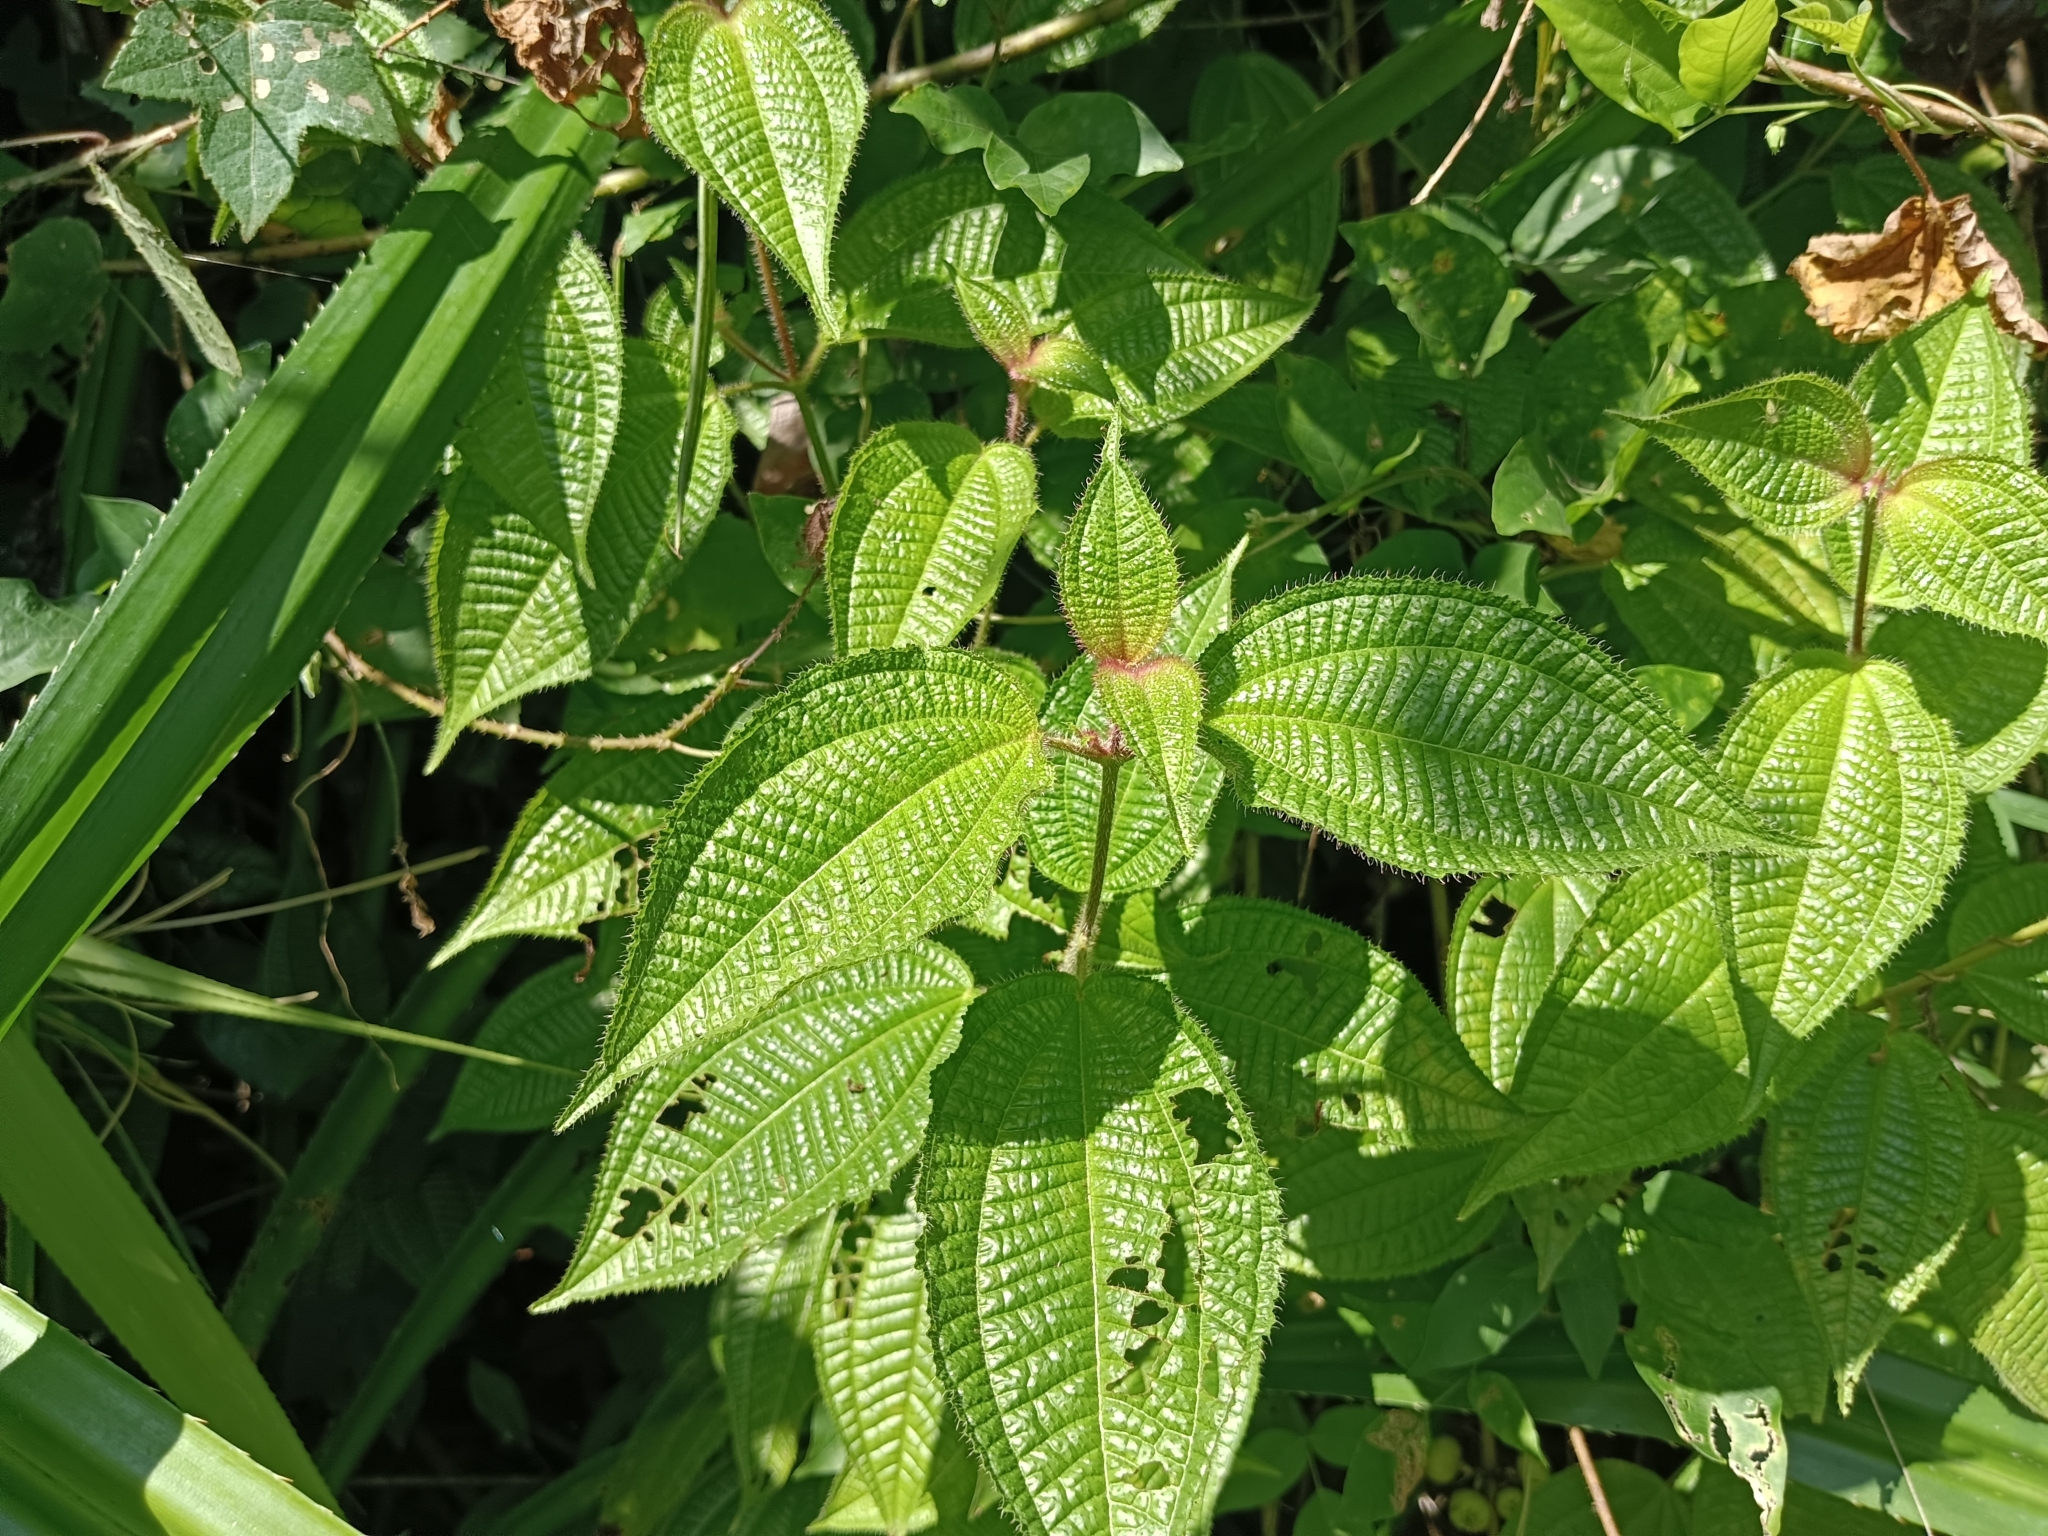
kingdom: Plantae
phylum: Tracheophyta
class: Magnoliopsida
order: Myrtales
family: Melastomataceae
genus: Miconia
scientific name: Miconia crenata
